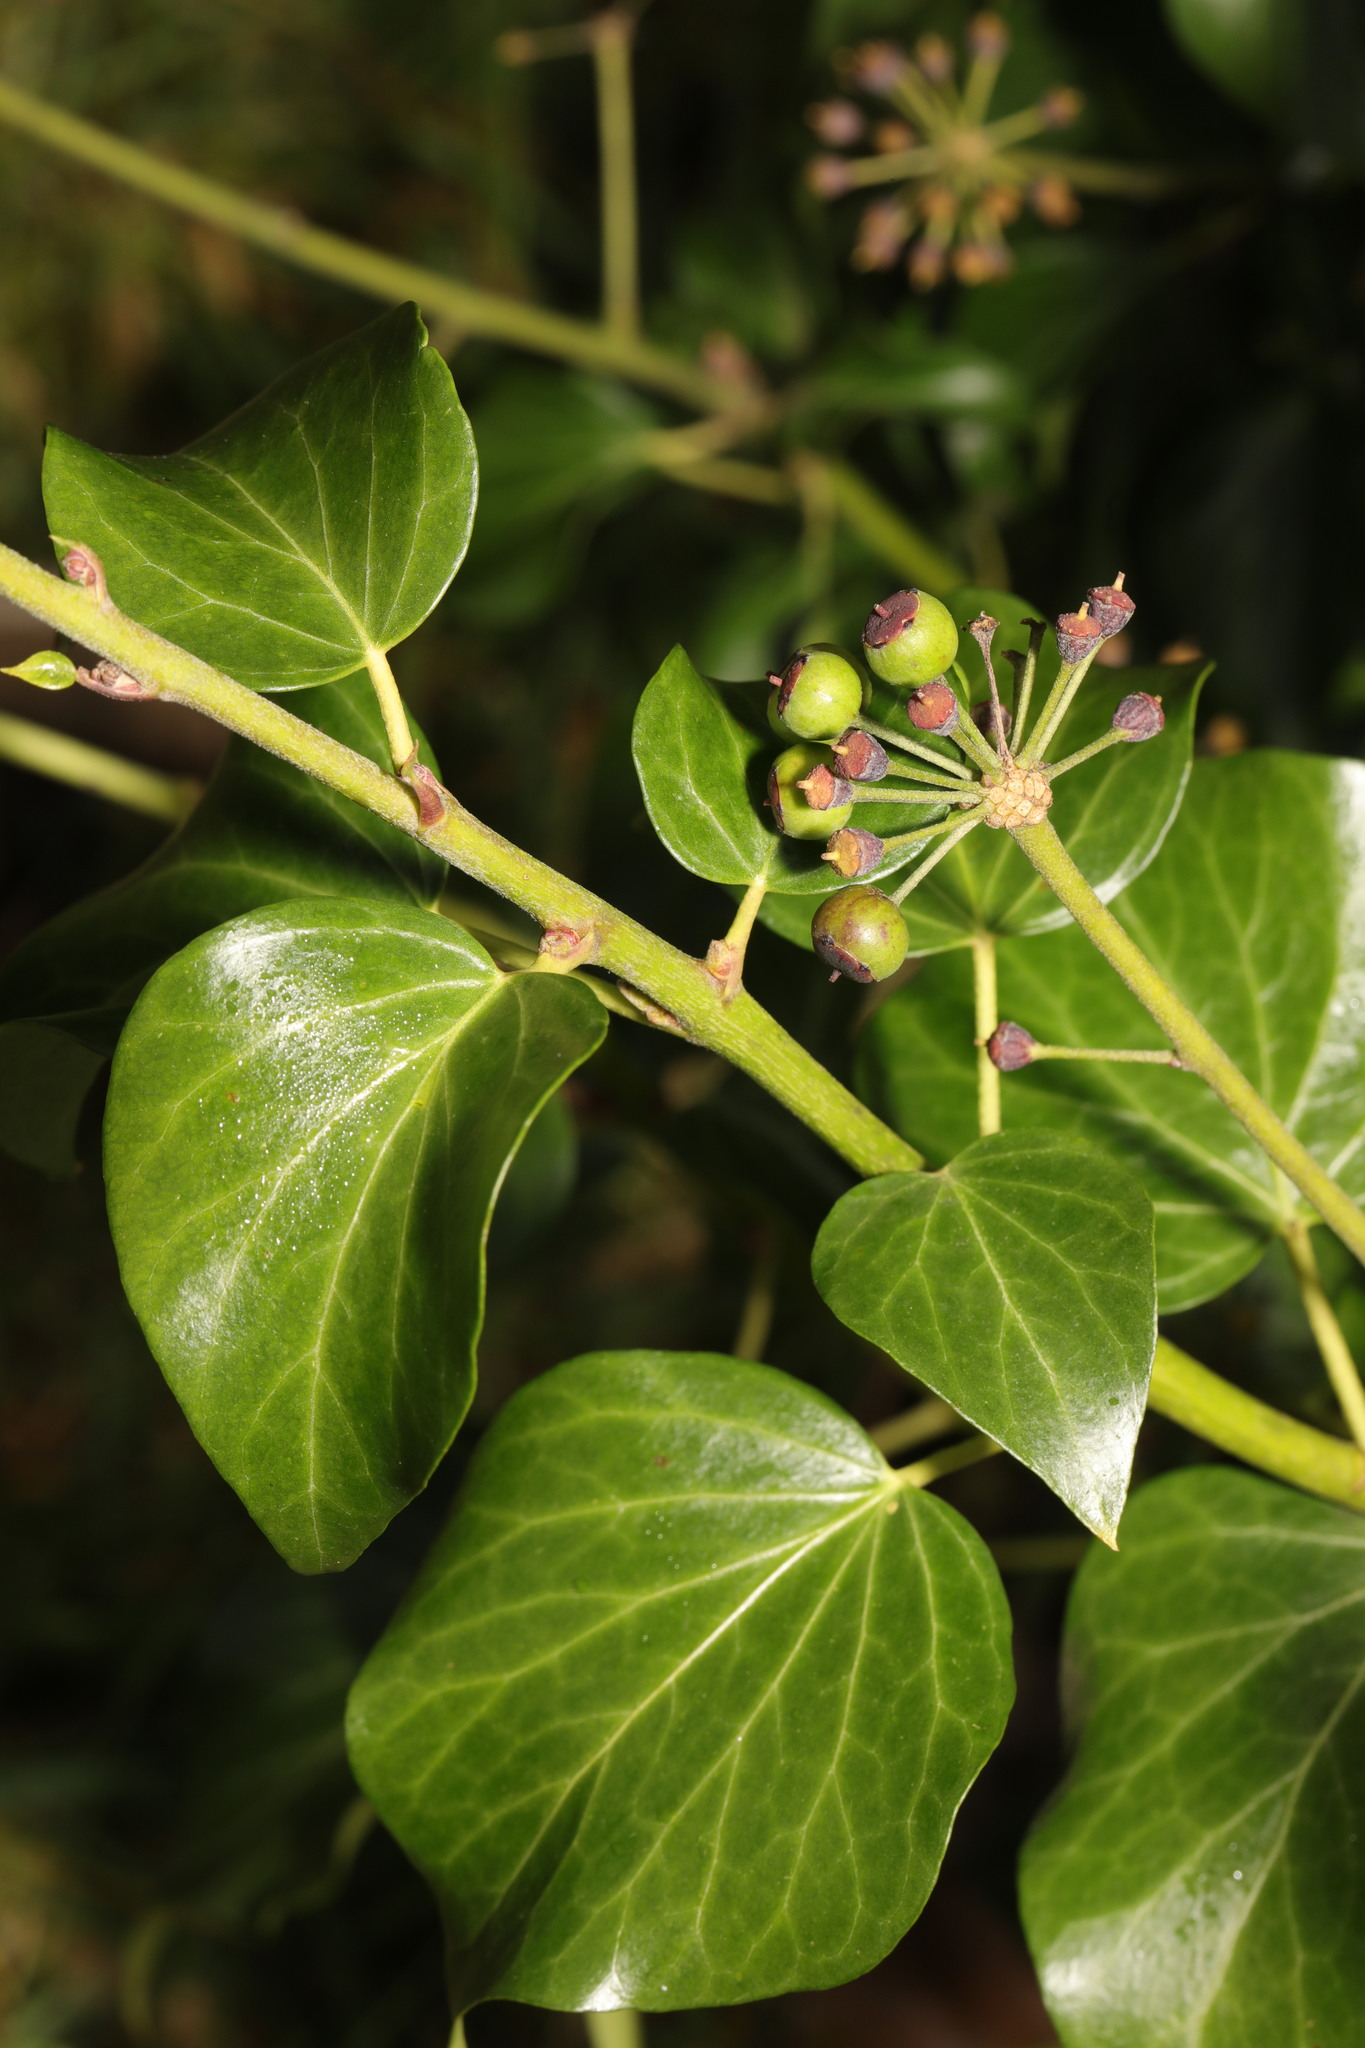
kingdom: Plantae
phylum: Tracheophyta
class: Magnoliopsida
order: Apiales
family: Araliaceae
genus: Hedera
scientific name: Hedera helix
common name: Ivy
